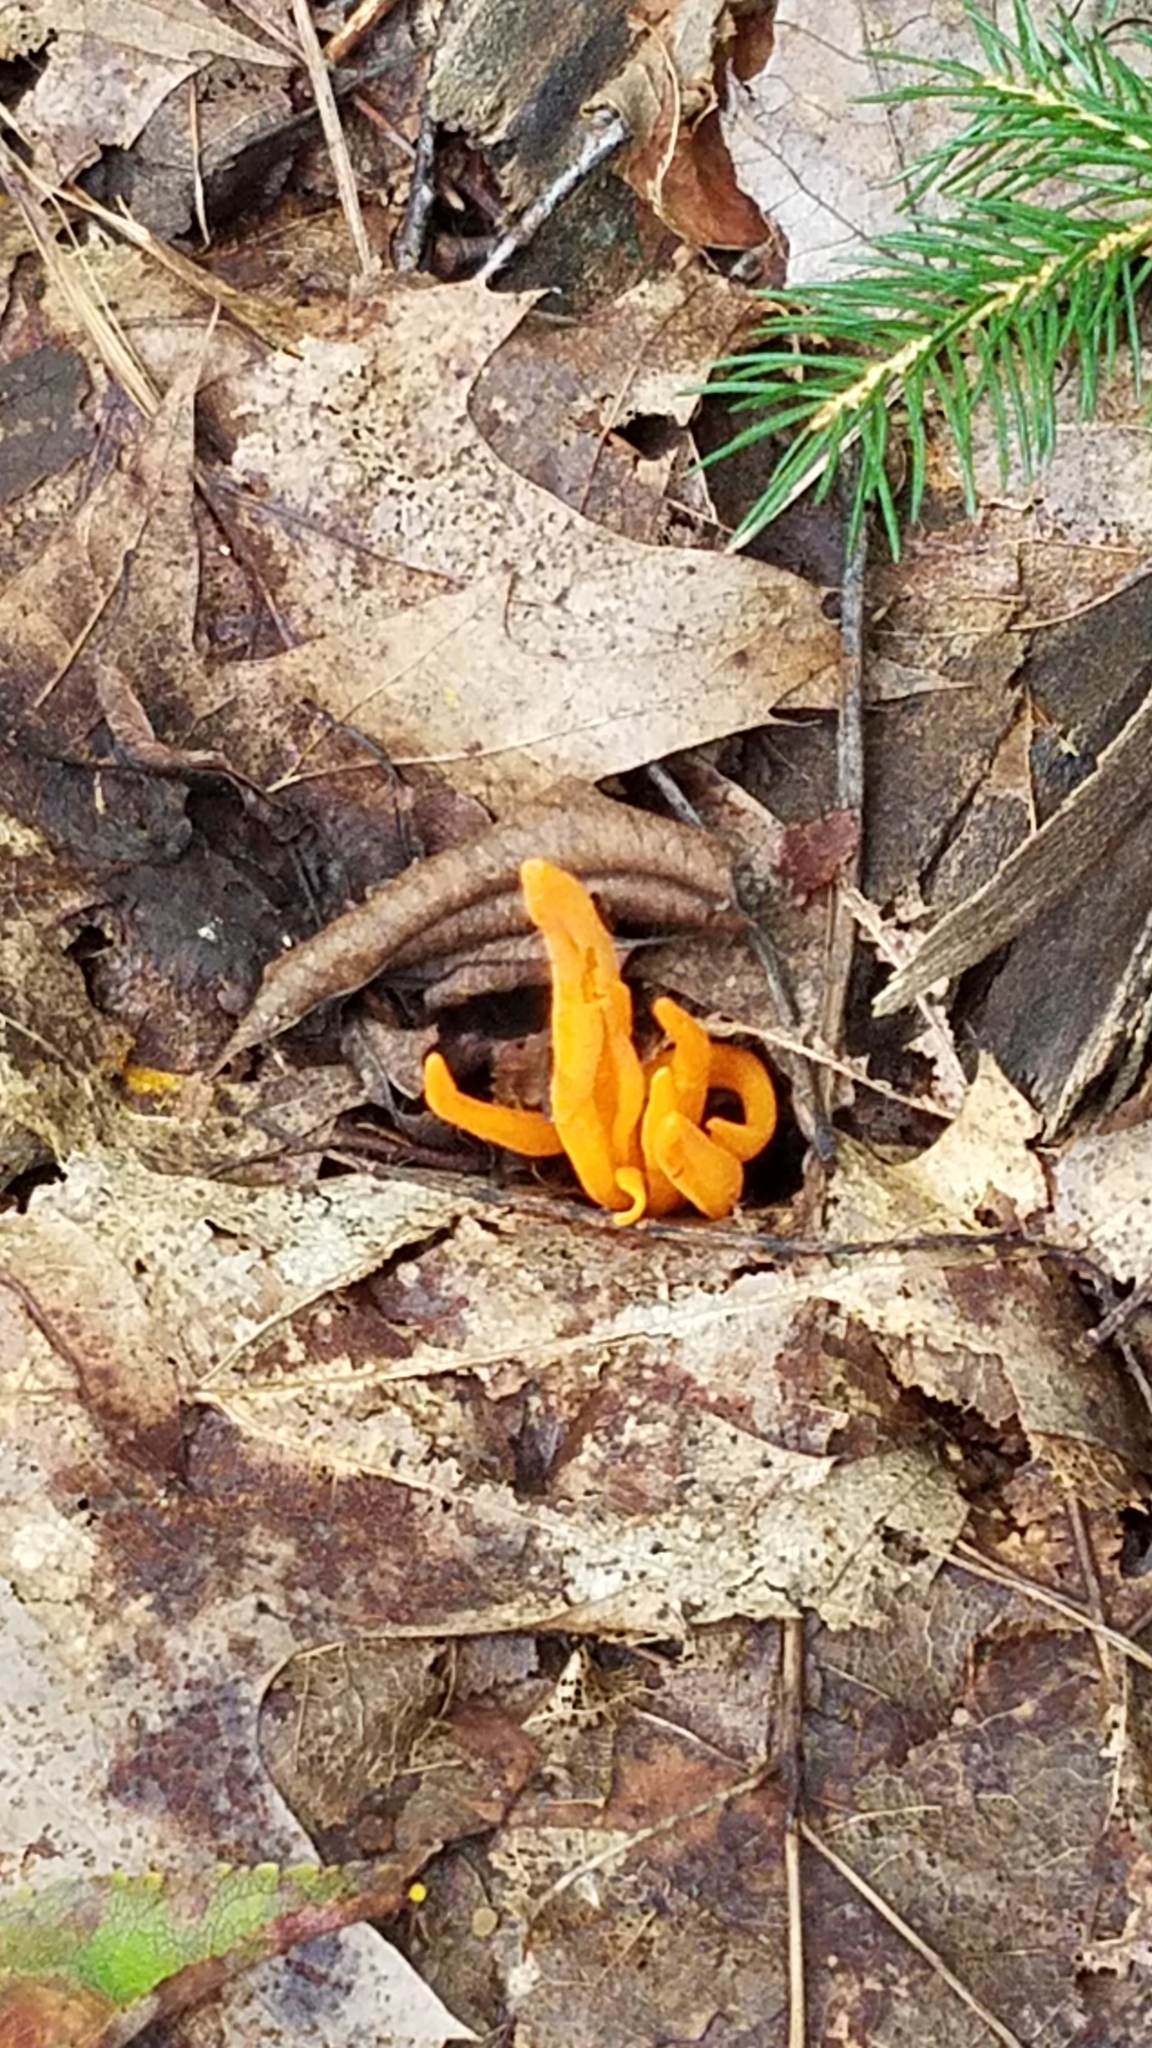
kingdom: Fungi
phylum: Basidiomycota
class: Agaricomycetes
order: Agaricales
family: Clavariaceae
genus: Clavulinopsis
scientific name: Clavulinopsis aurantiocinnabarina
